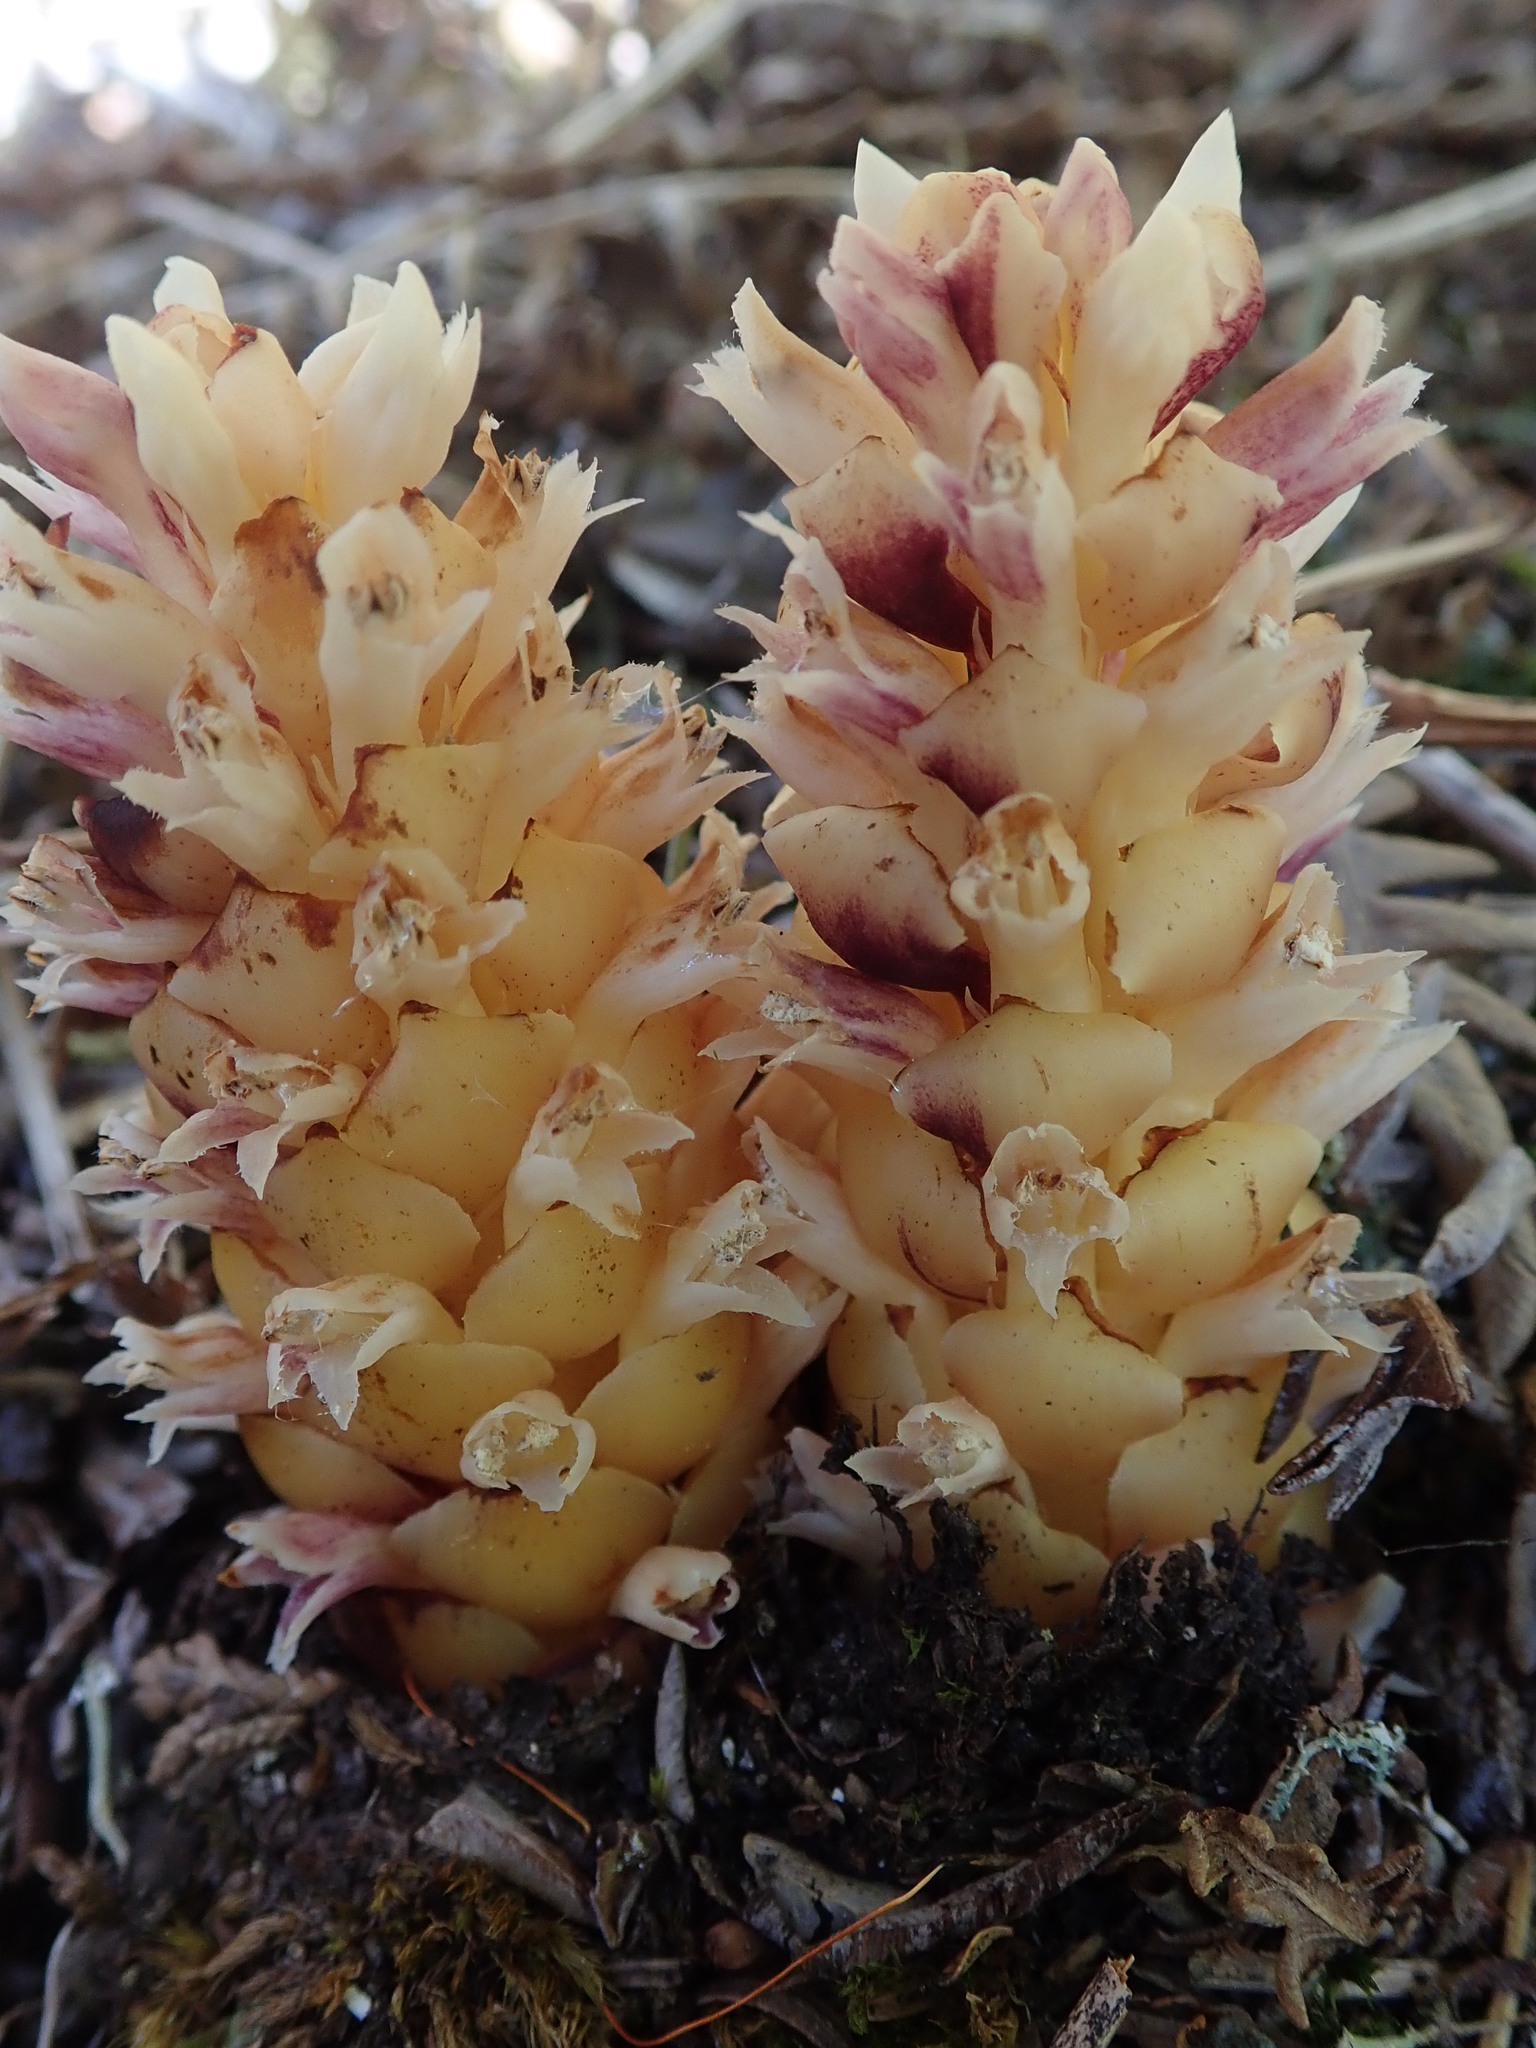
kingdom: Plantae
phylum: Tracheophyta
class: Magnoliopsida
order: Lamiales
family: Orobanchaceae
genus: Kopsiopsis
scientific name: Kopsiopsis hookeri
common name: Hooker's groundcone
